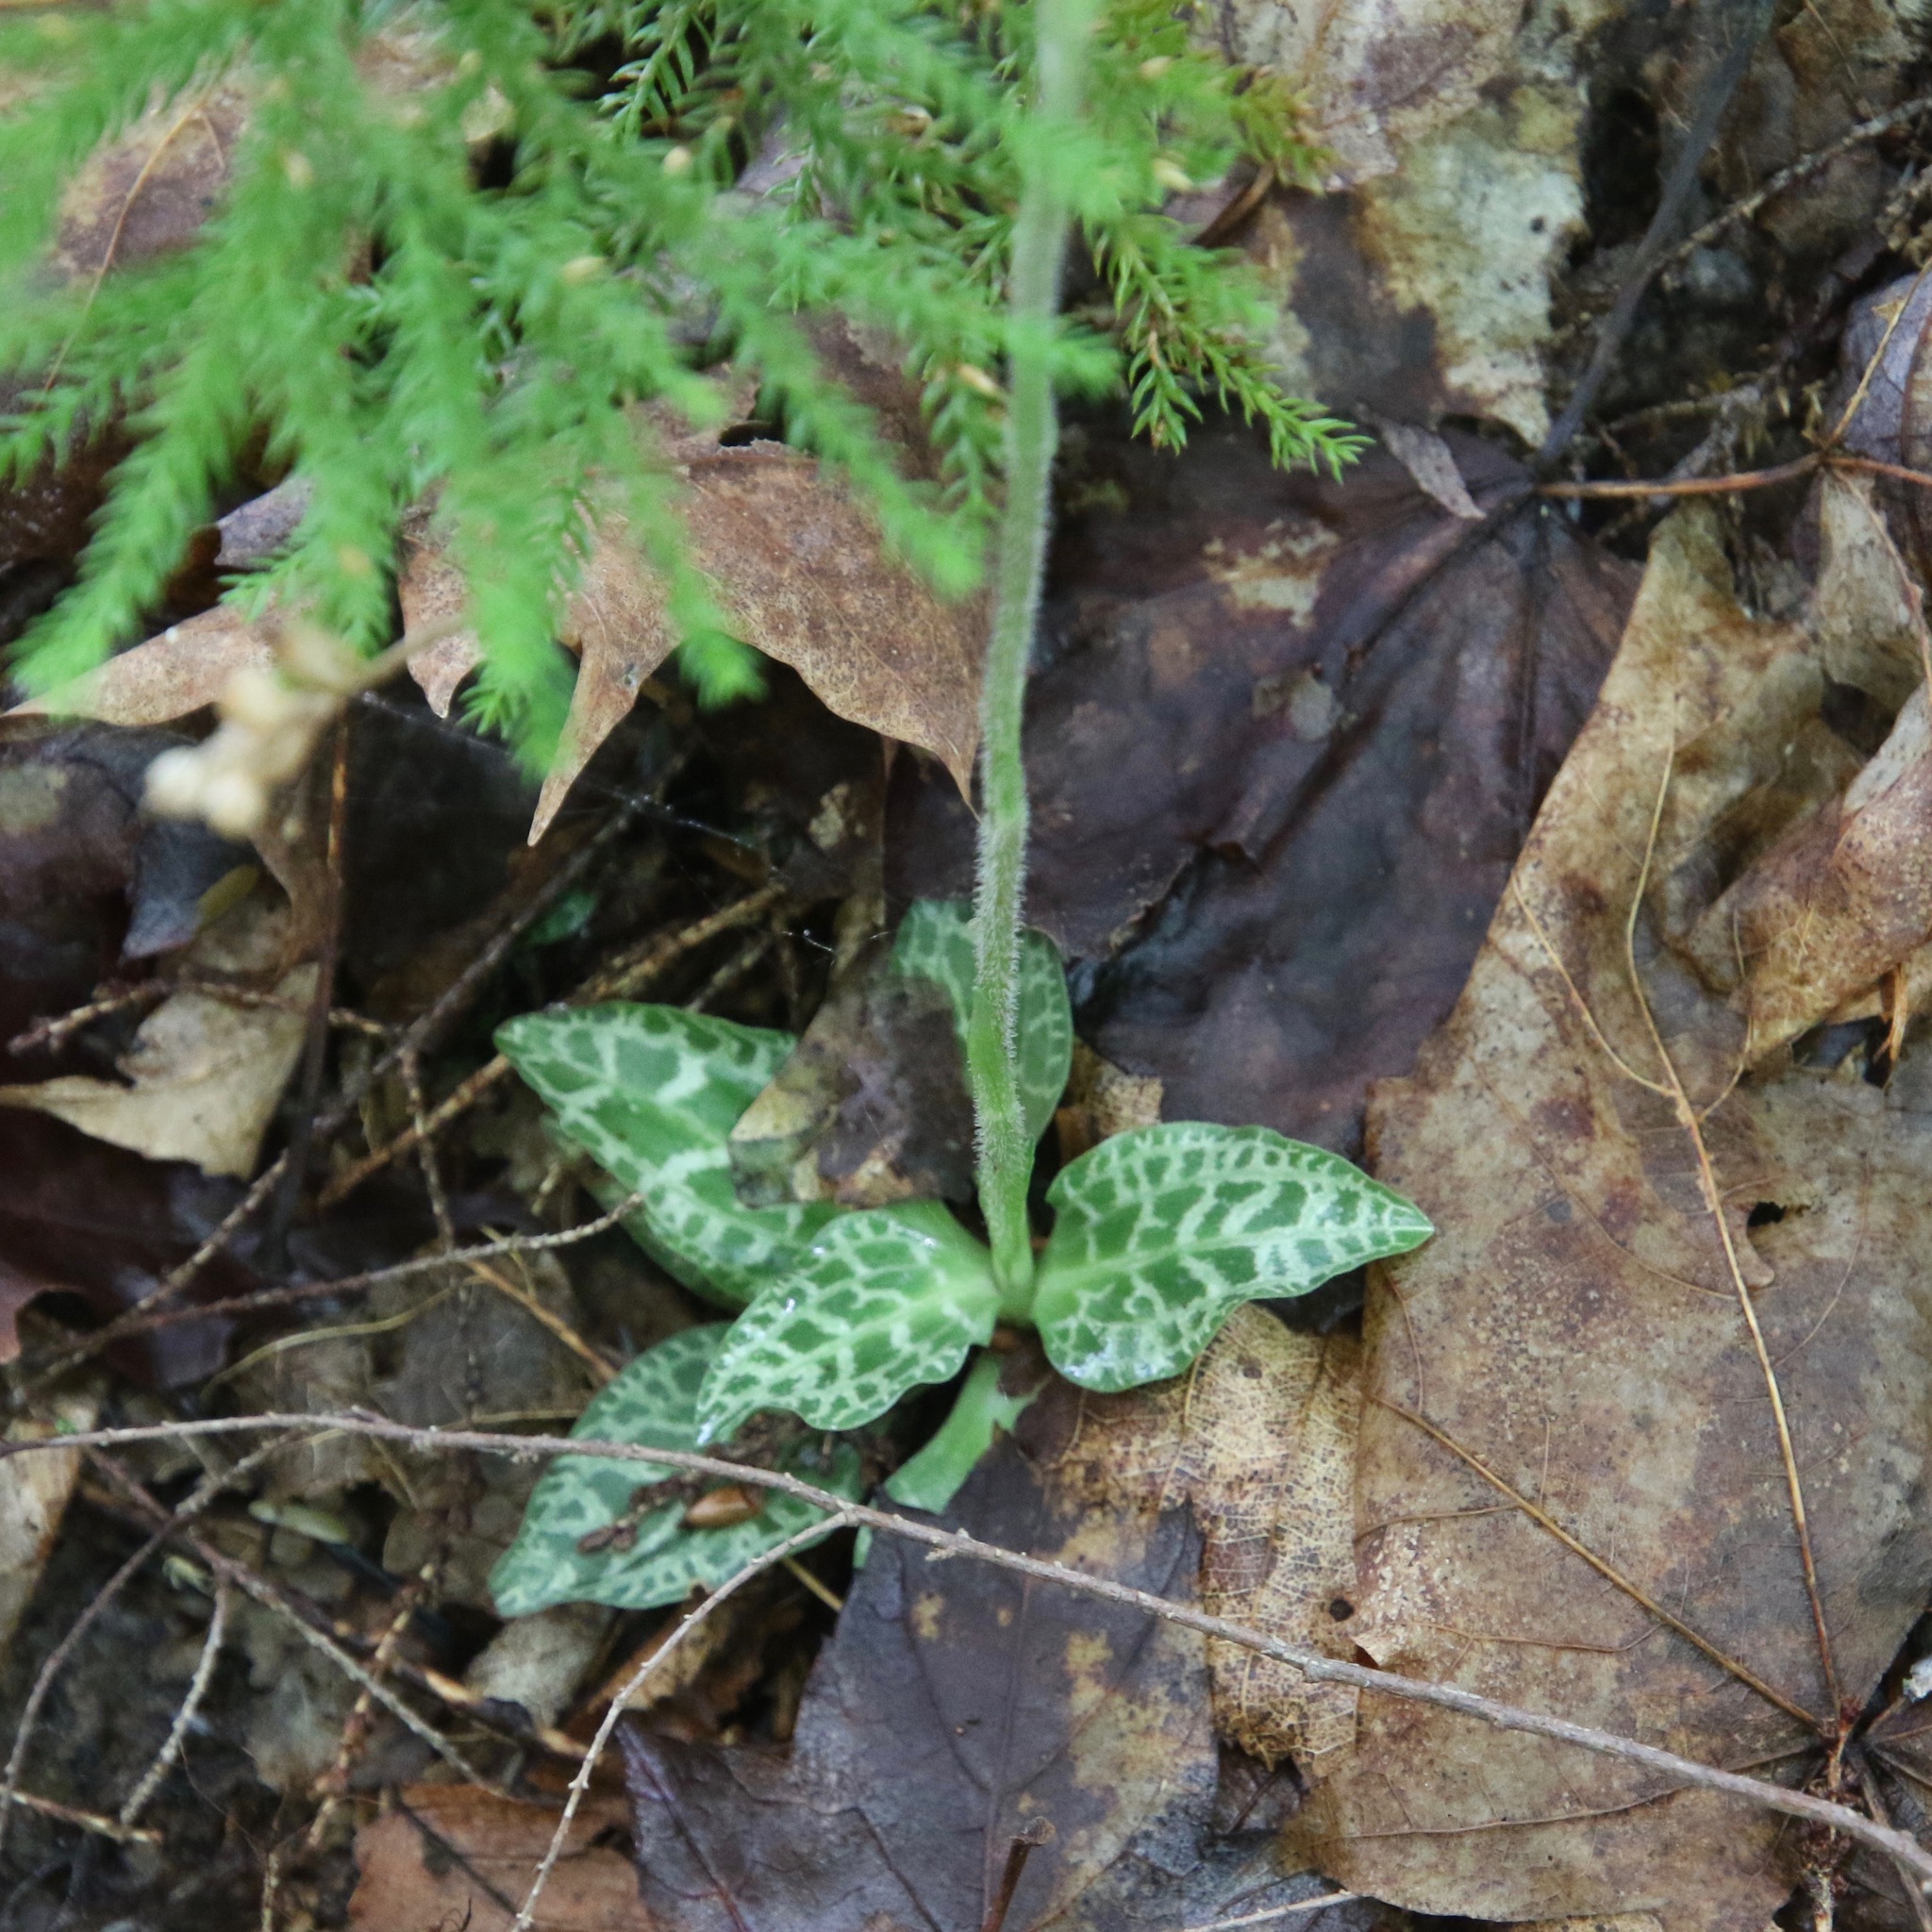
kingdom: Plantae
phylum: Tracheophyta
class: Liliopsida
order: Asparagales
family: Orchidaceae
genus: Goodyera
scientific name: Goodyera tesselata
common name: Checkered rattlesnake-plantain
